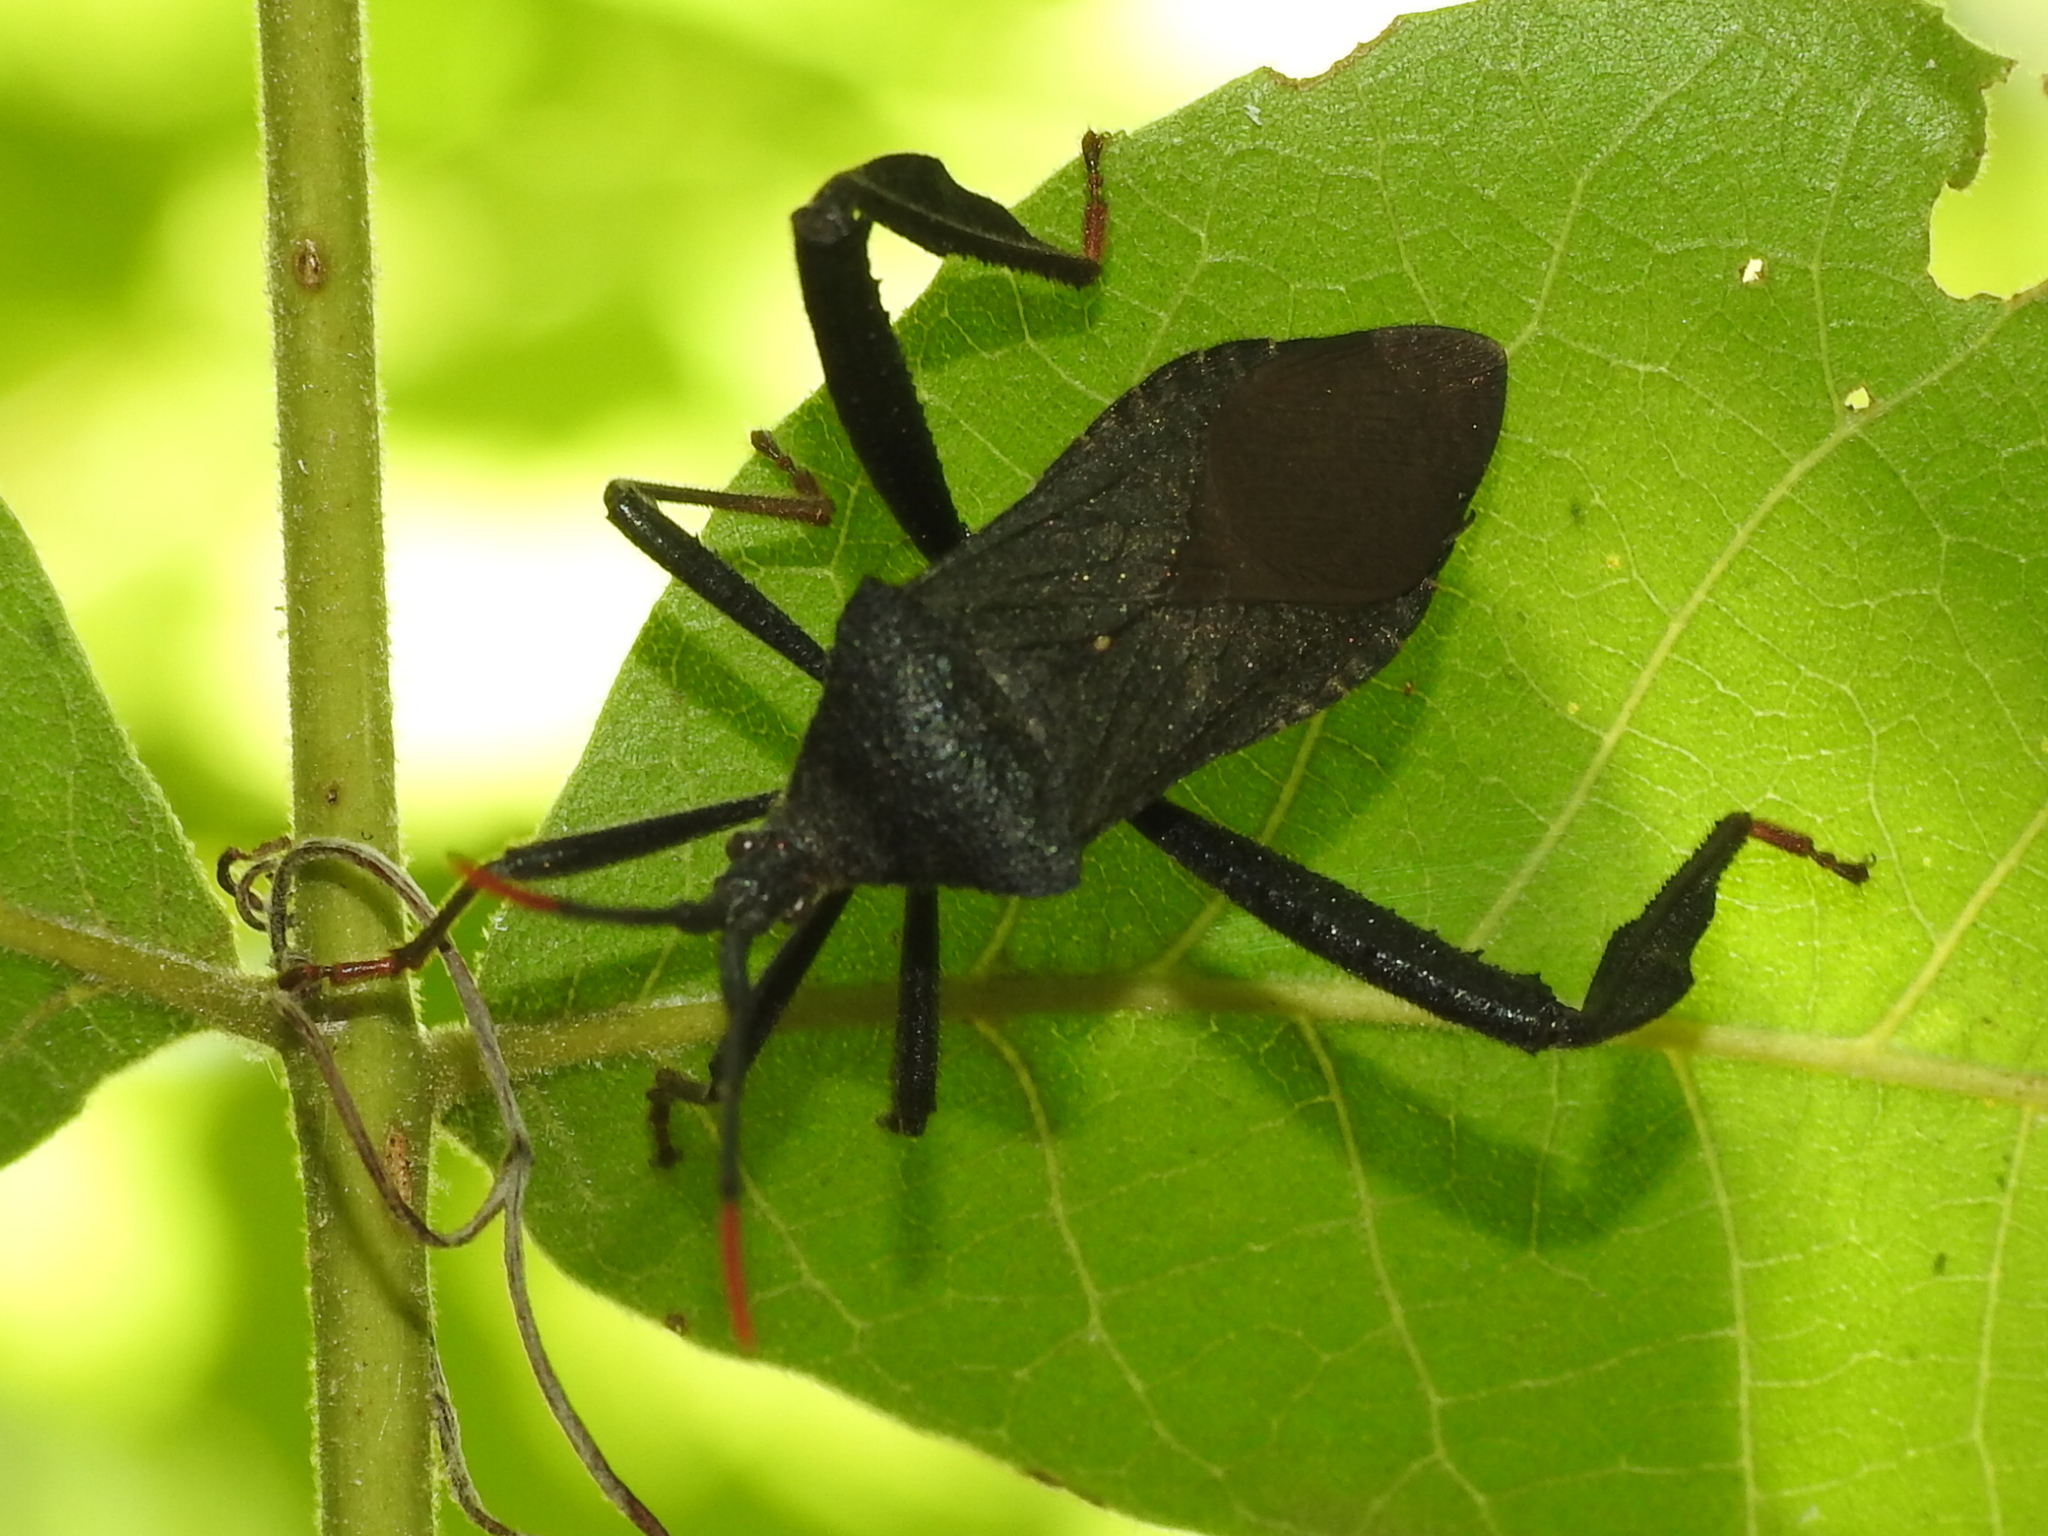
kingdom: Animalia
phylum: Arthropoda
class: Insecta
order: Hemiptera
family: Coreidae
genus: Acanthocephala
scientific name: Acanthocephala terminalis
